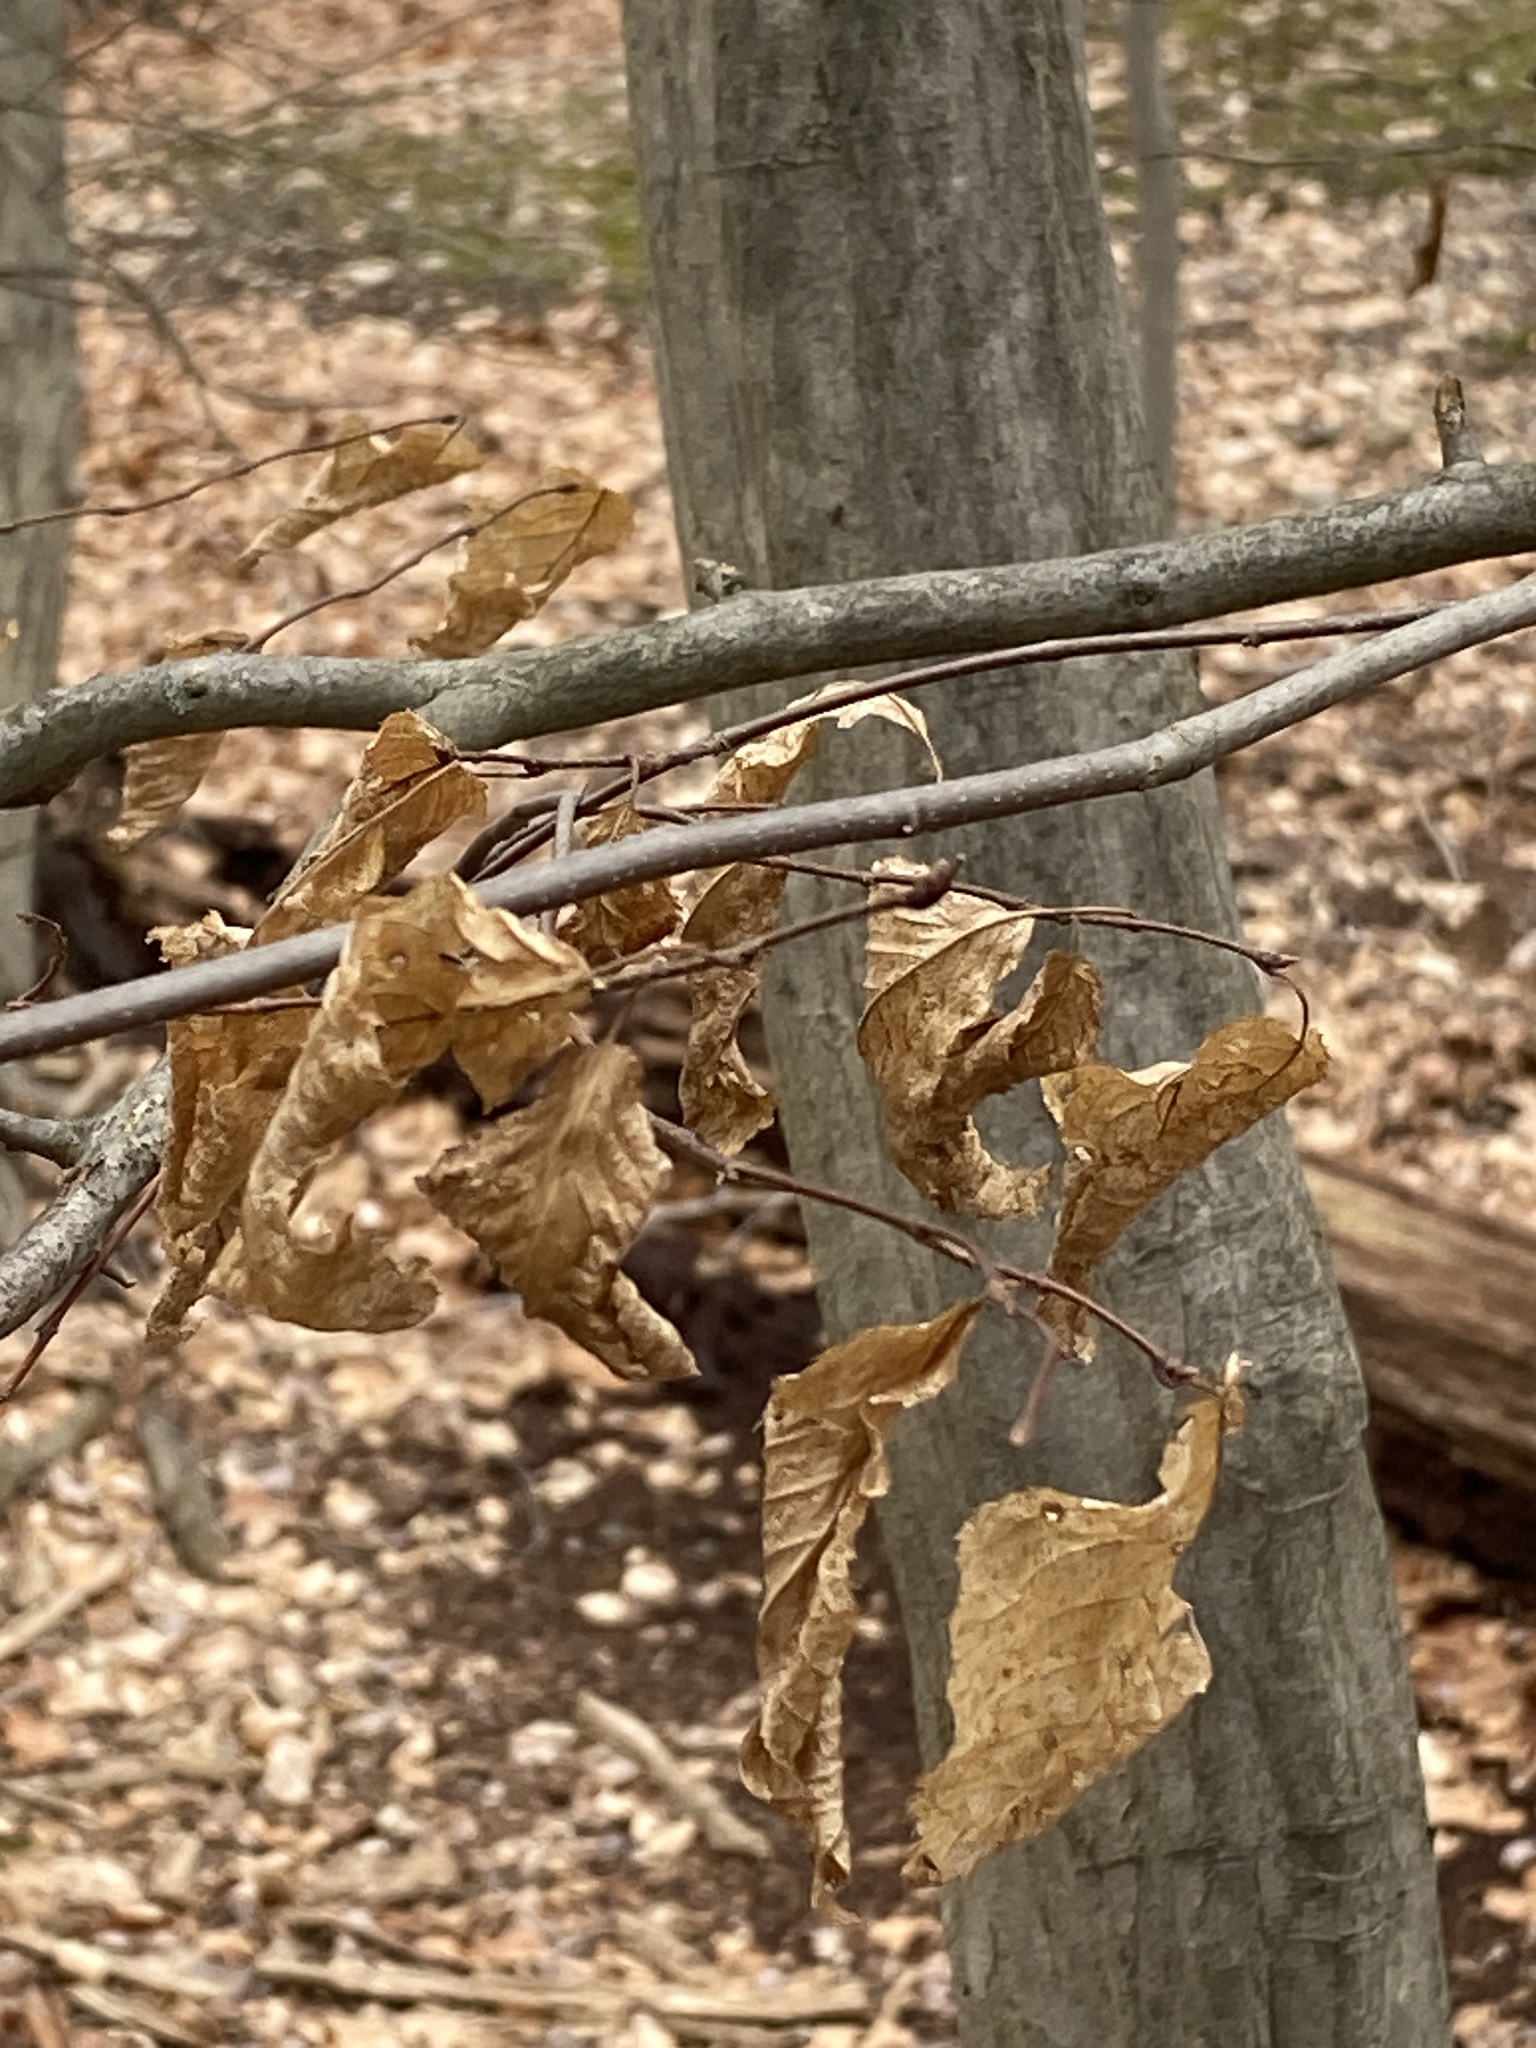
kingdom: Plantae
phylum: Tracheophyta
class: Magnoliopsida
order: Fagales
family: Betulaceae
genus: Carpinus
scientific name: Carpinus caroliniana
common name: American hornbeam
